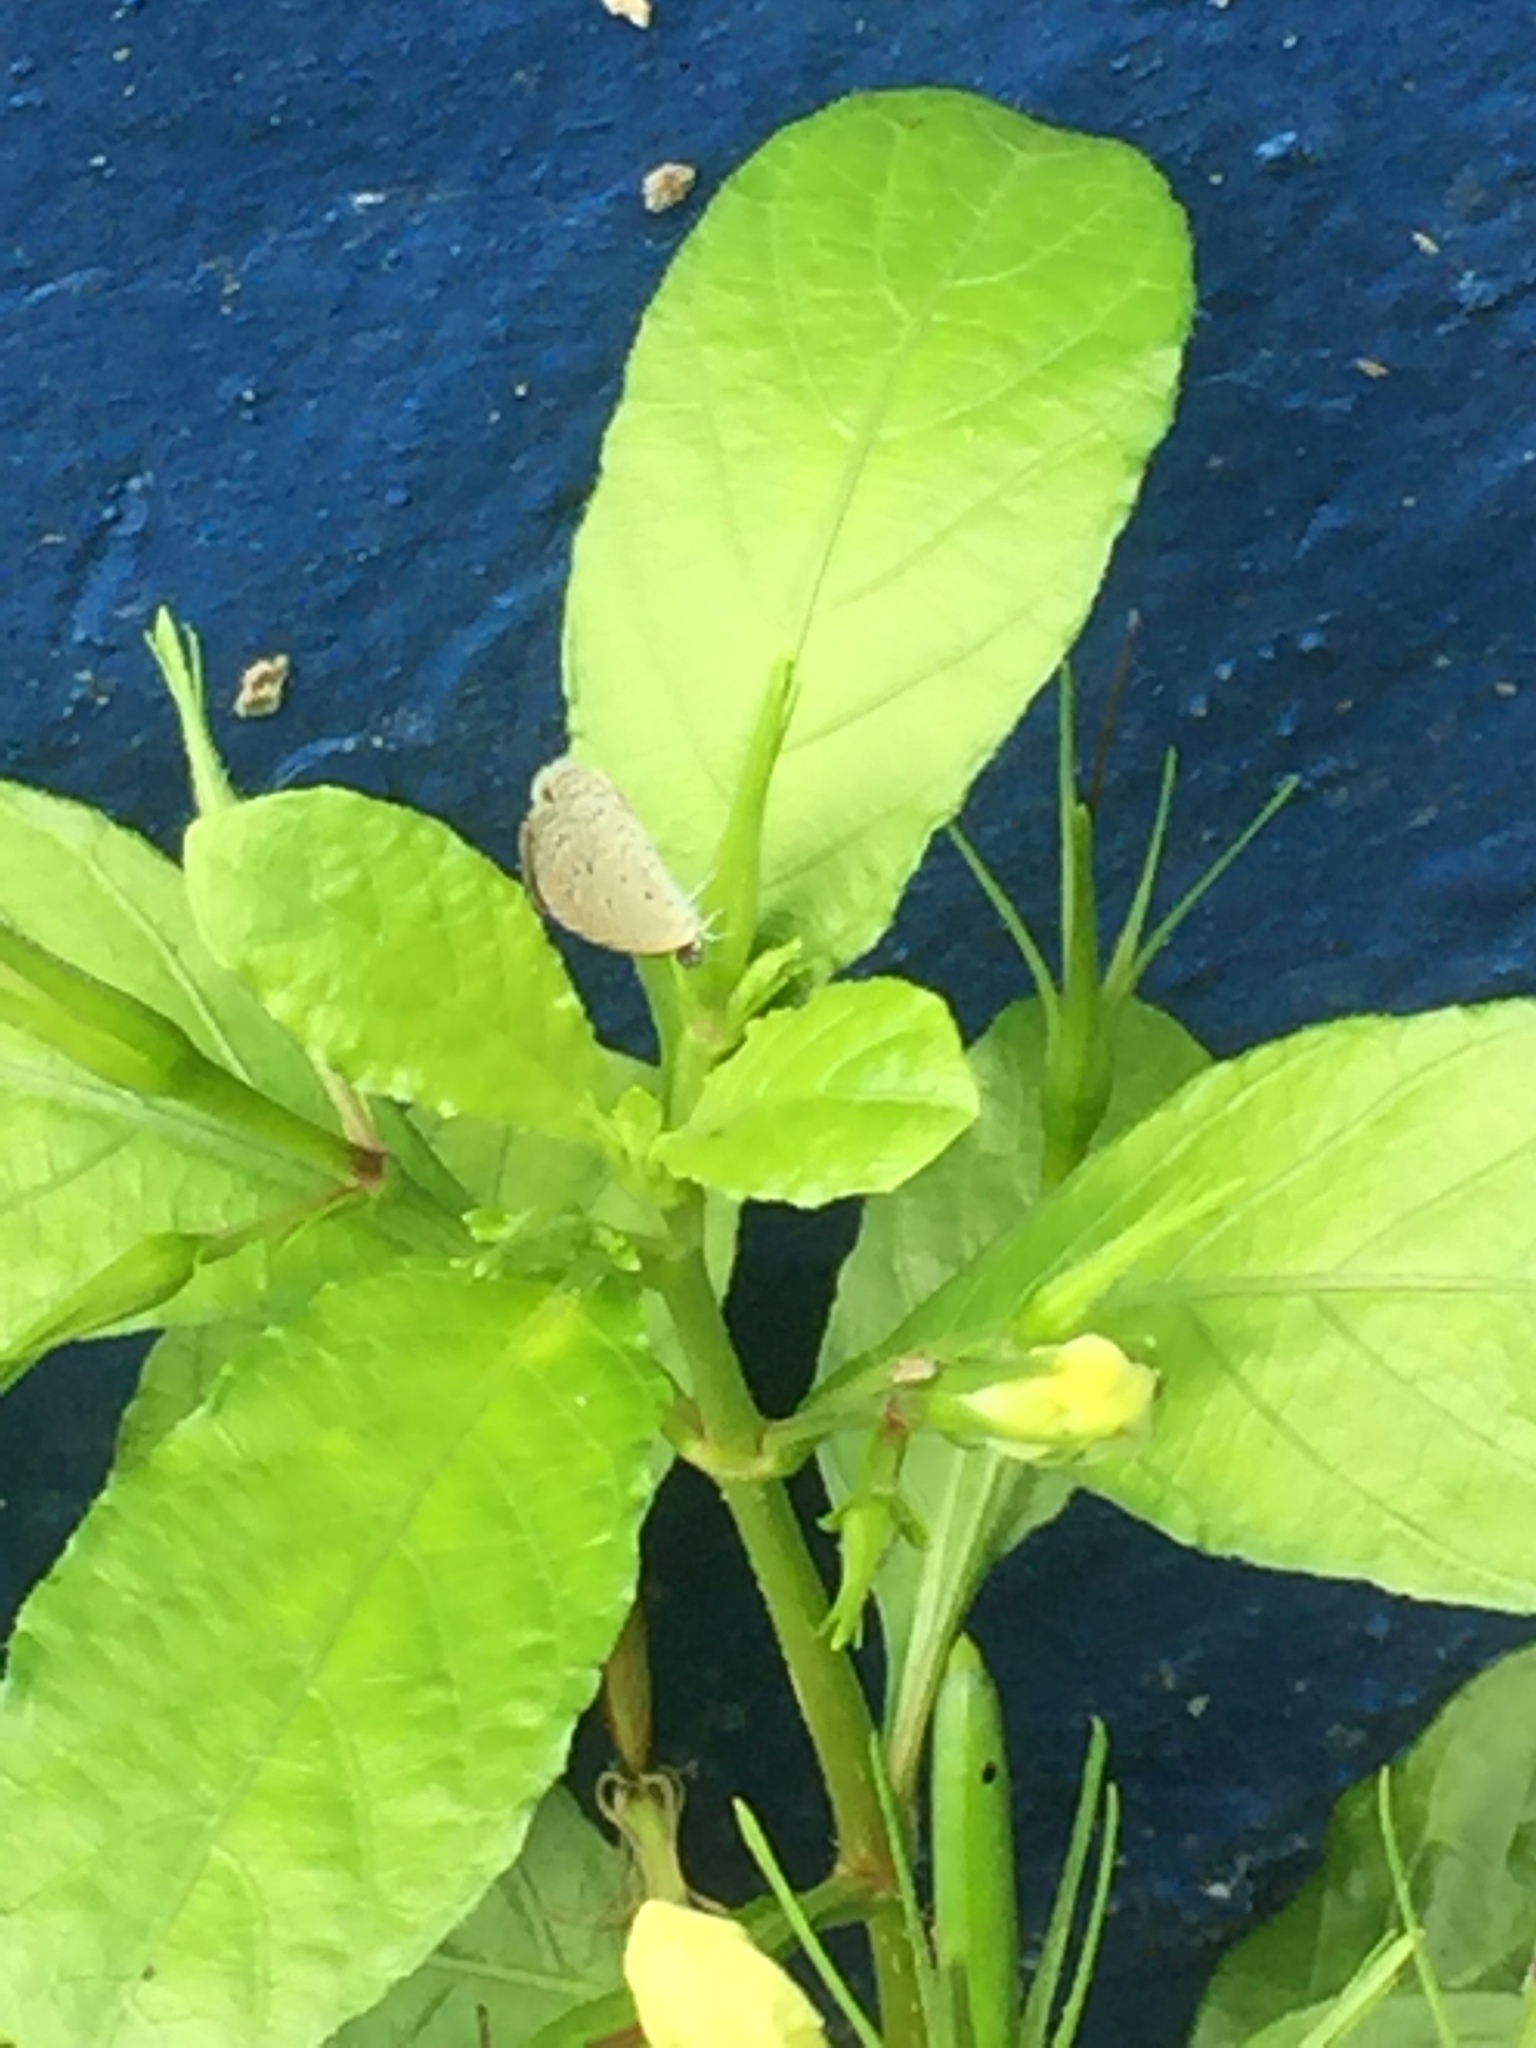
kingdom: Plantae
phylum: Tracheophyta
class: Magnoliopsida
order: Lamiales
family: Acanthaceae
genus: Ruellia
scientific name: Ruellia tuberosa
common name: Devil's bit
